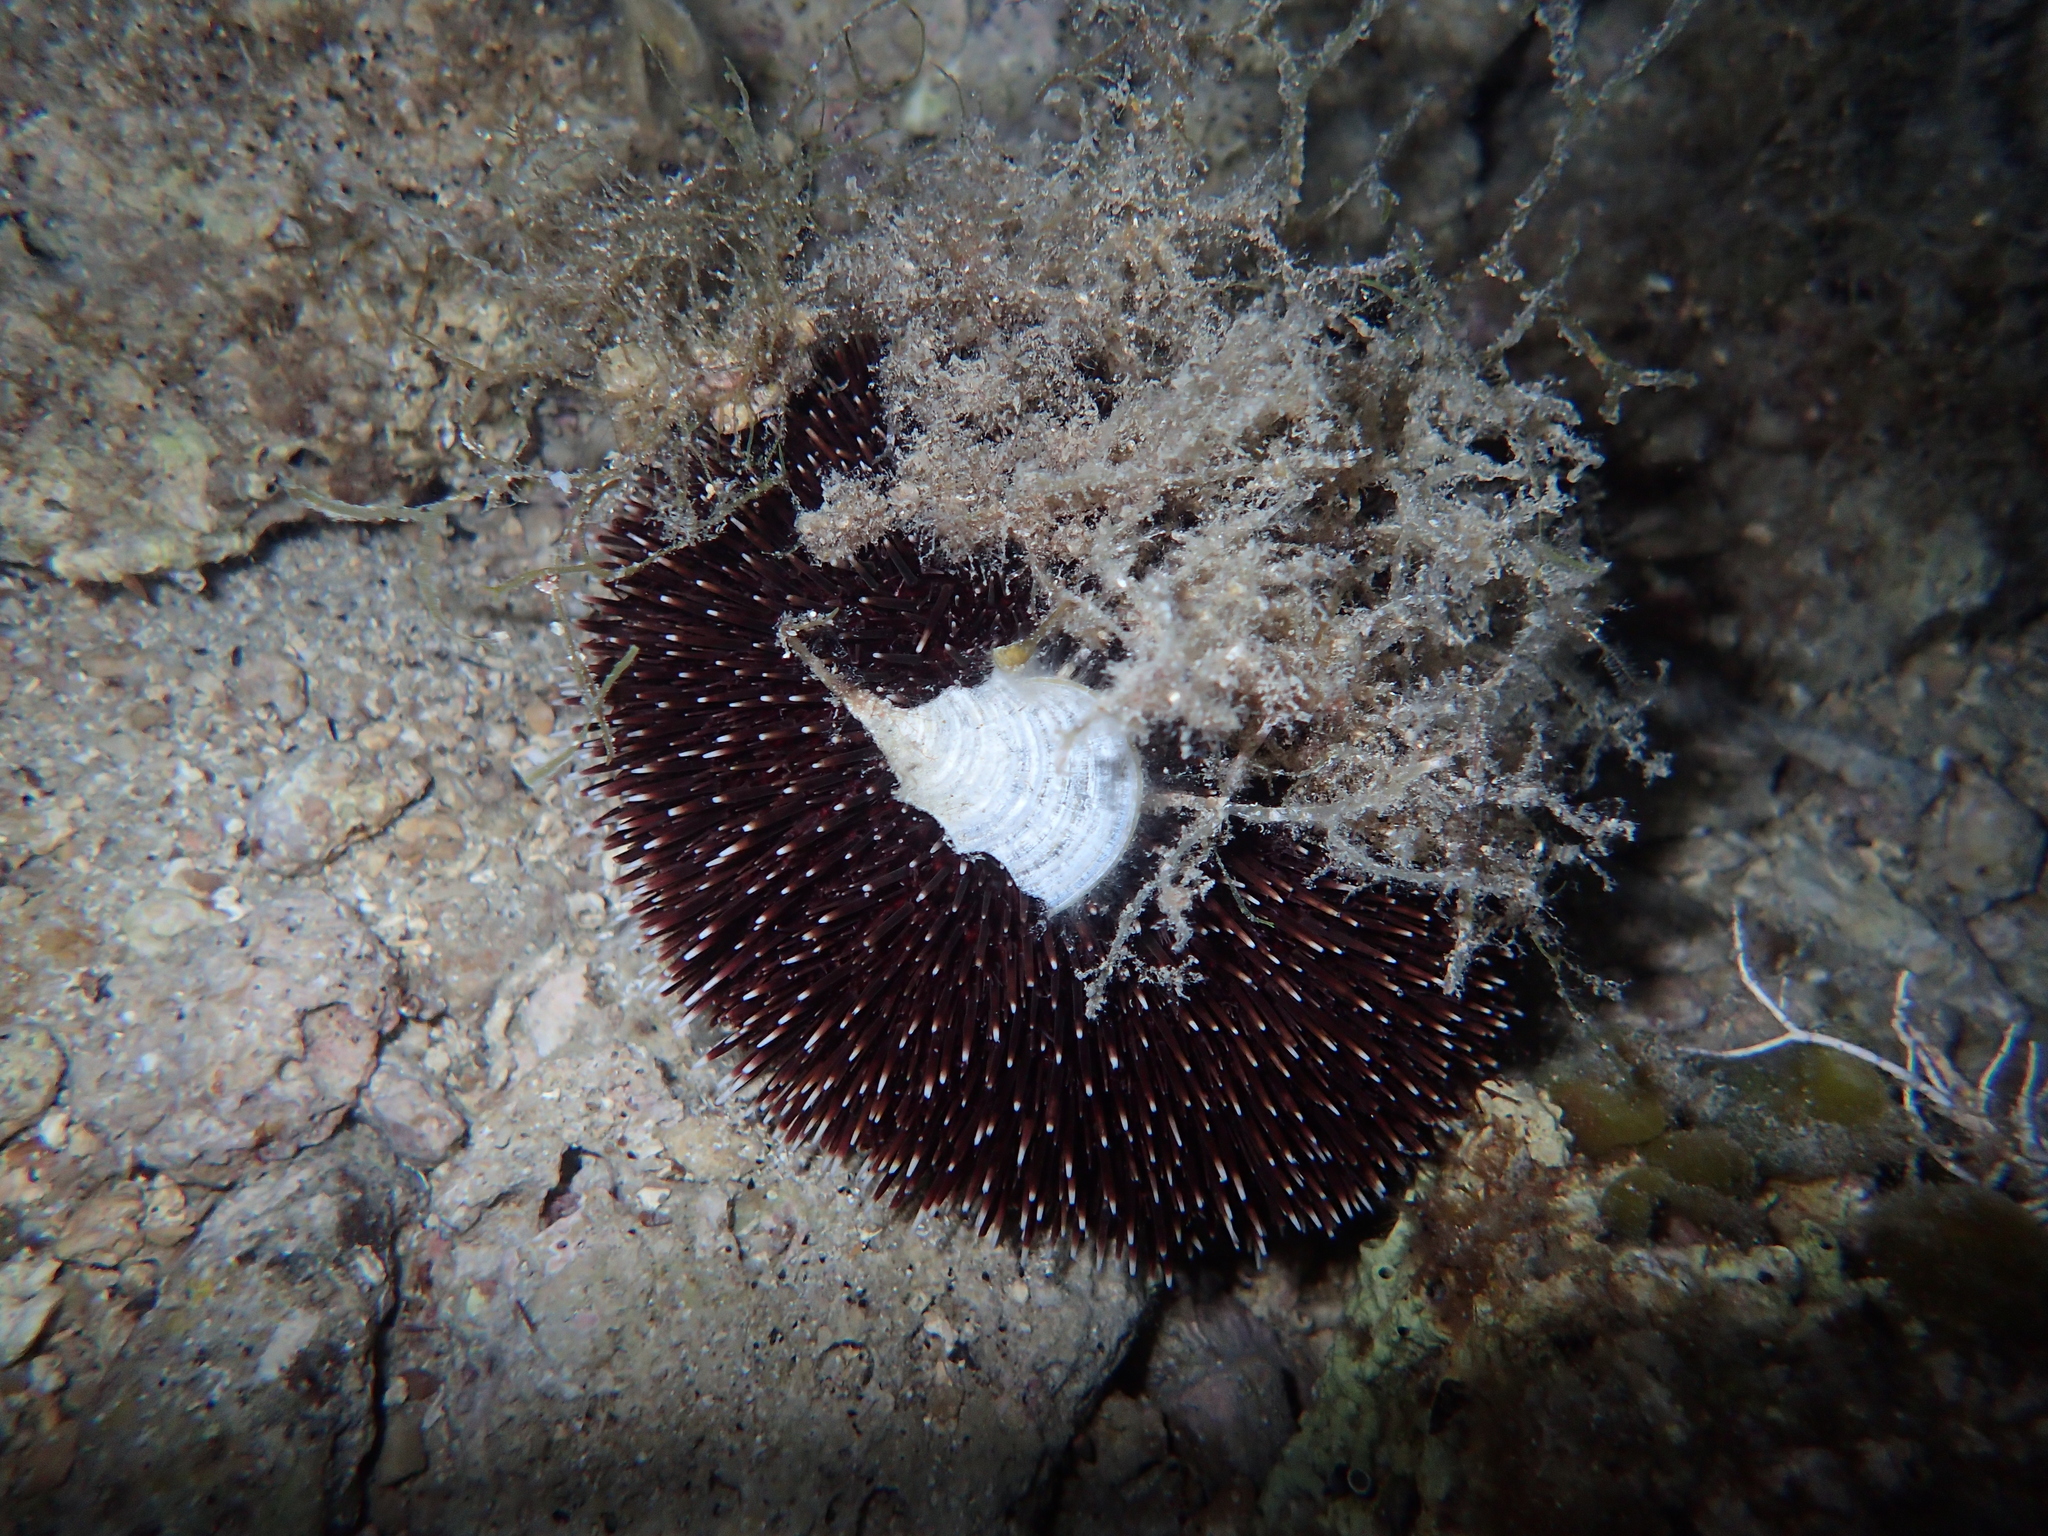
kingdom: Animalia
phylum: Echinodermata
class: Echinoidea
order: Camarodonta
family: Toxopneustidae
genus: Sphaerechinus
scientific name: Sphaerechinus granularis
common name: Violet sea urchin
